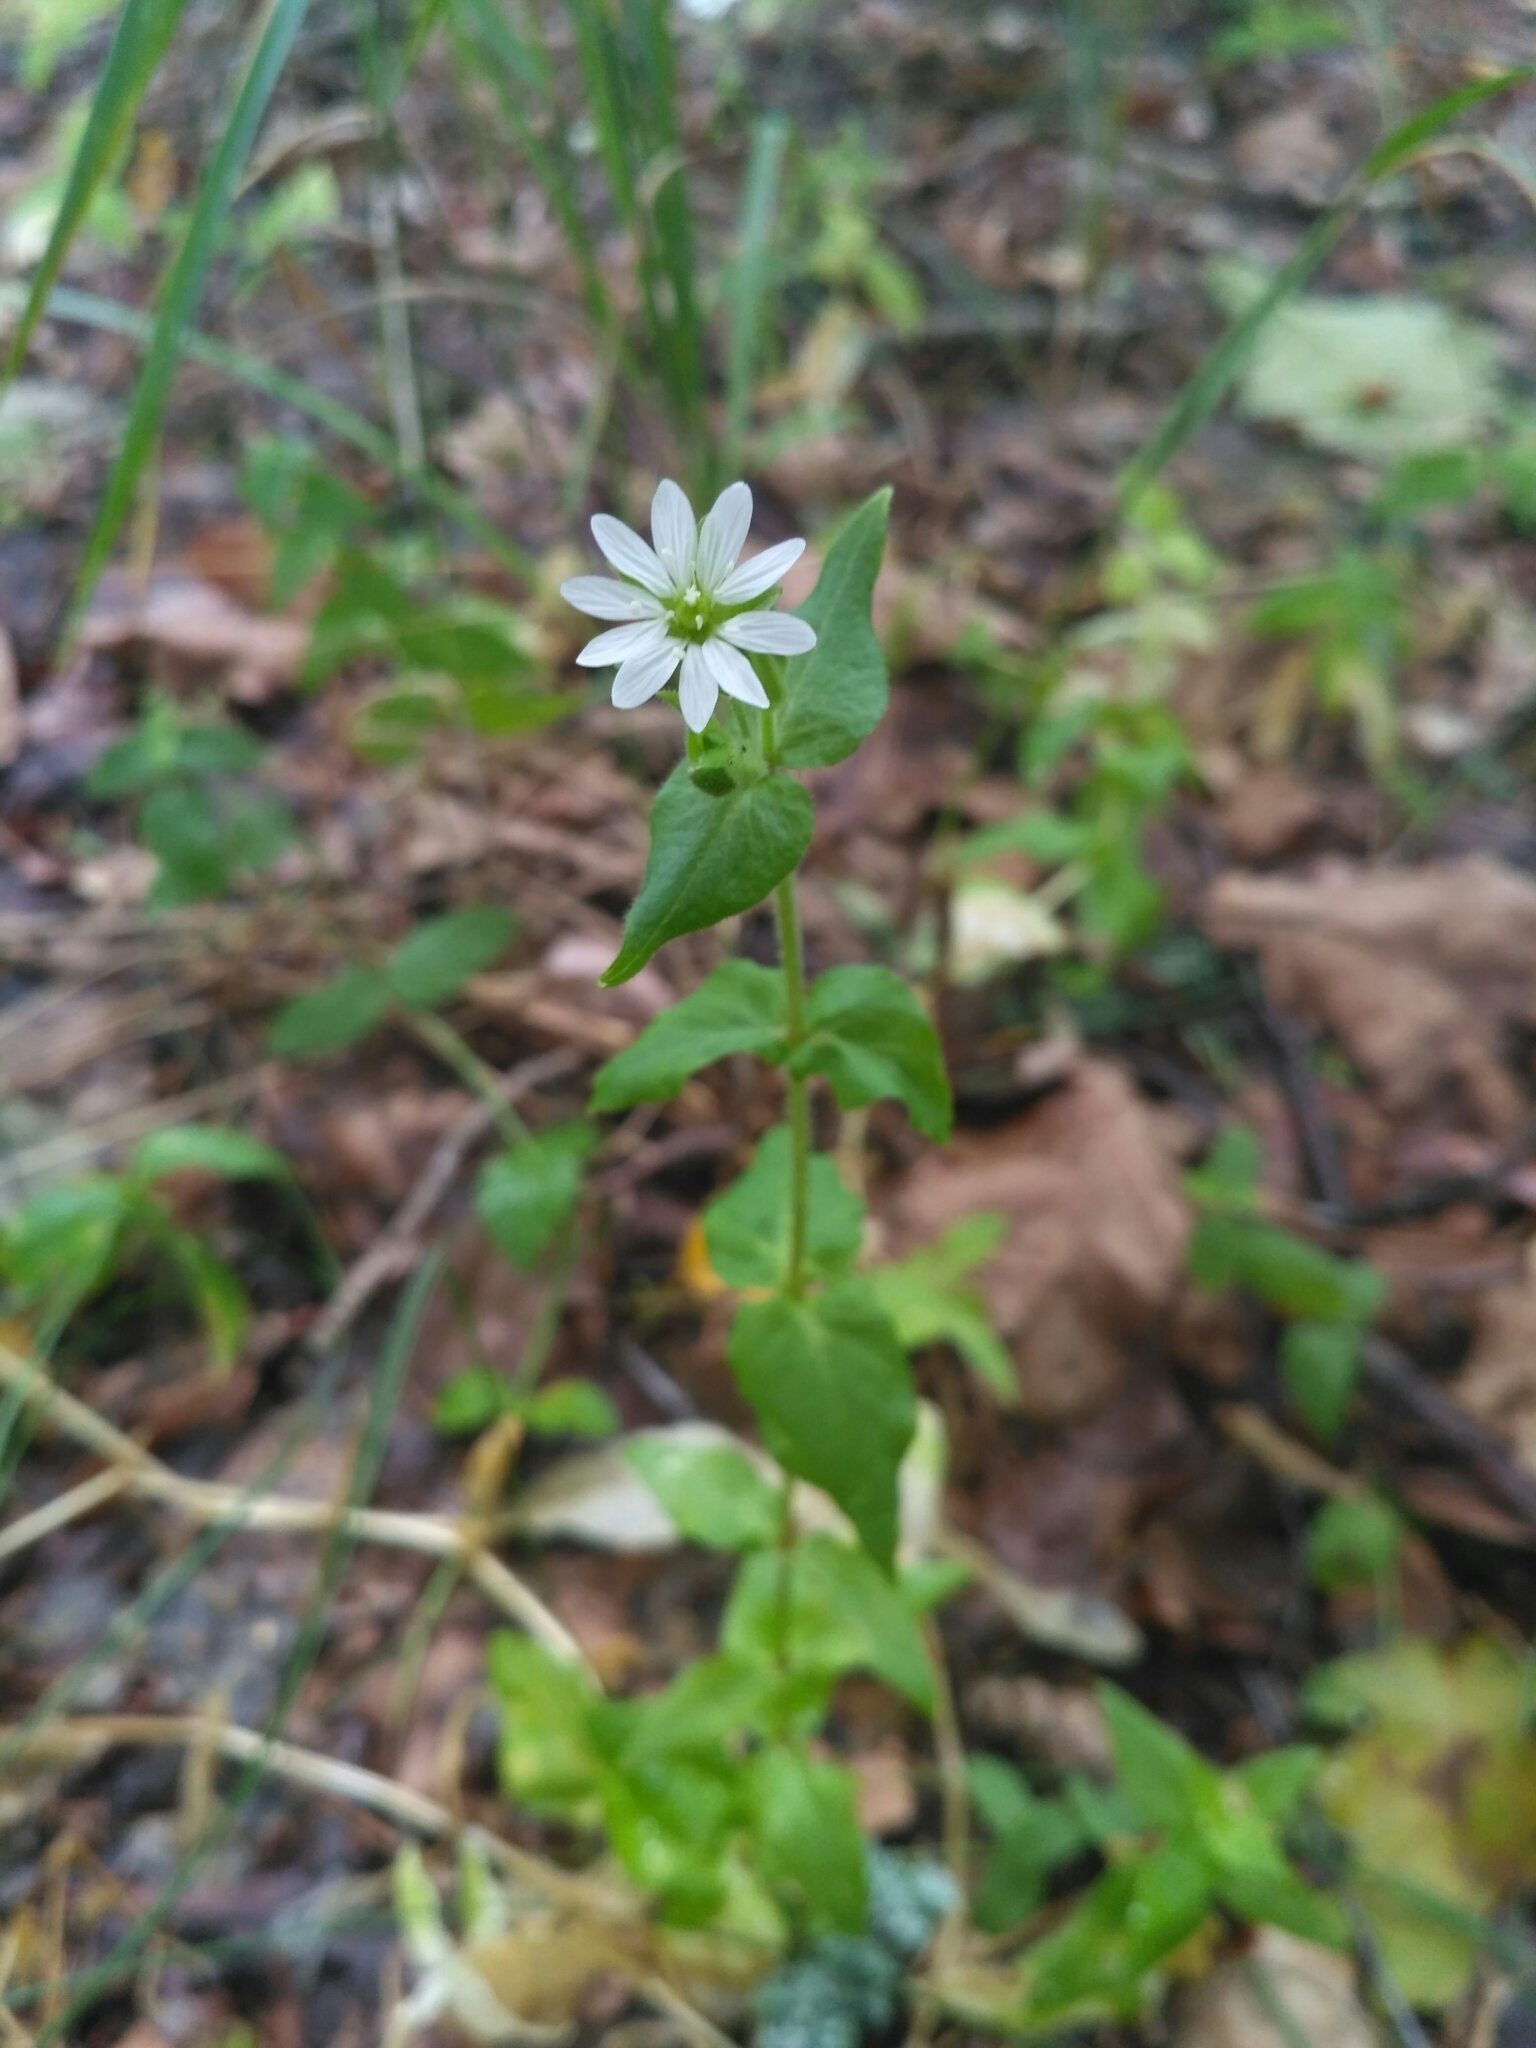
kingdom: Plantae
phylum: Tracheophyta
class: Magnoliopsida
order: Caryophyllales
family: Caryophyllaceae
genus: Stellaria
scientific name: Stellaria aquatica
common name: Water chickweed
